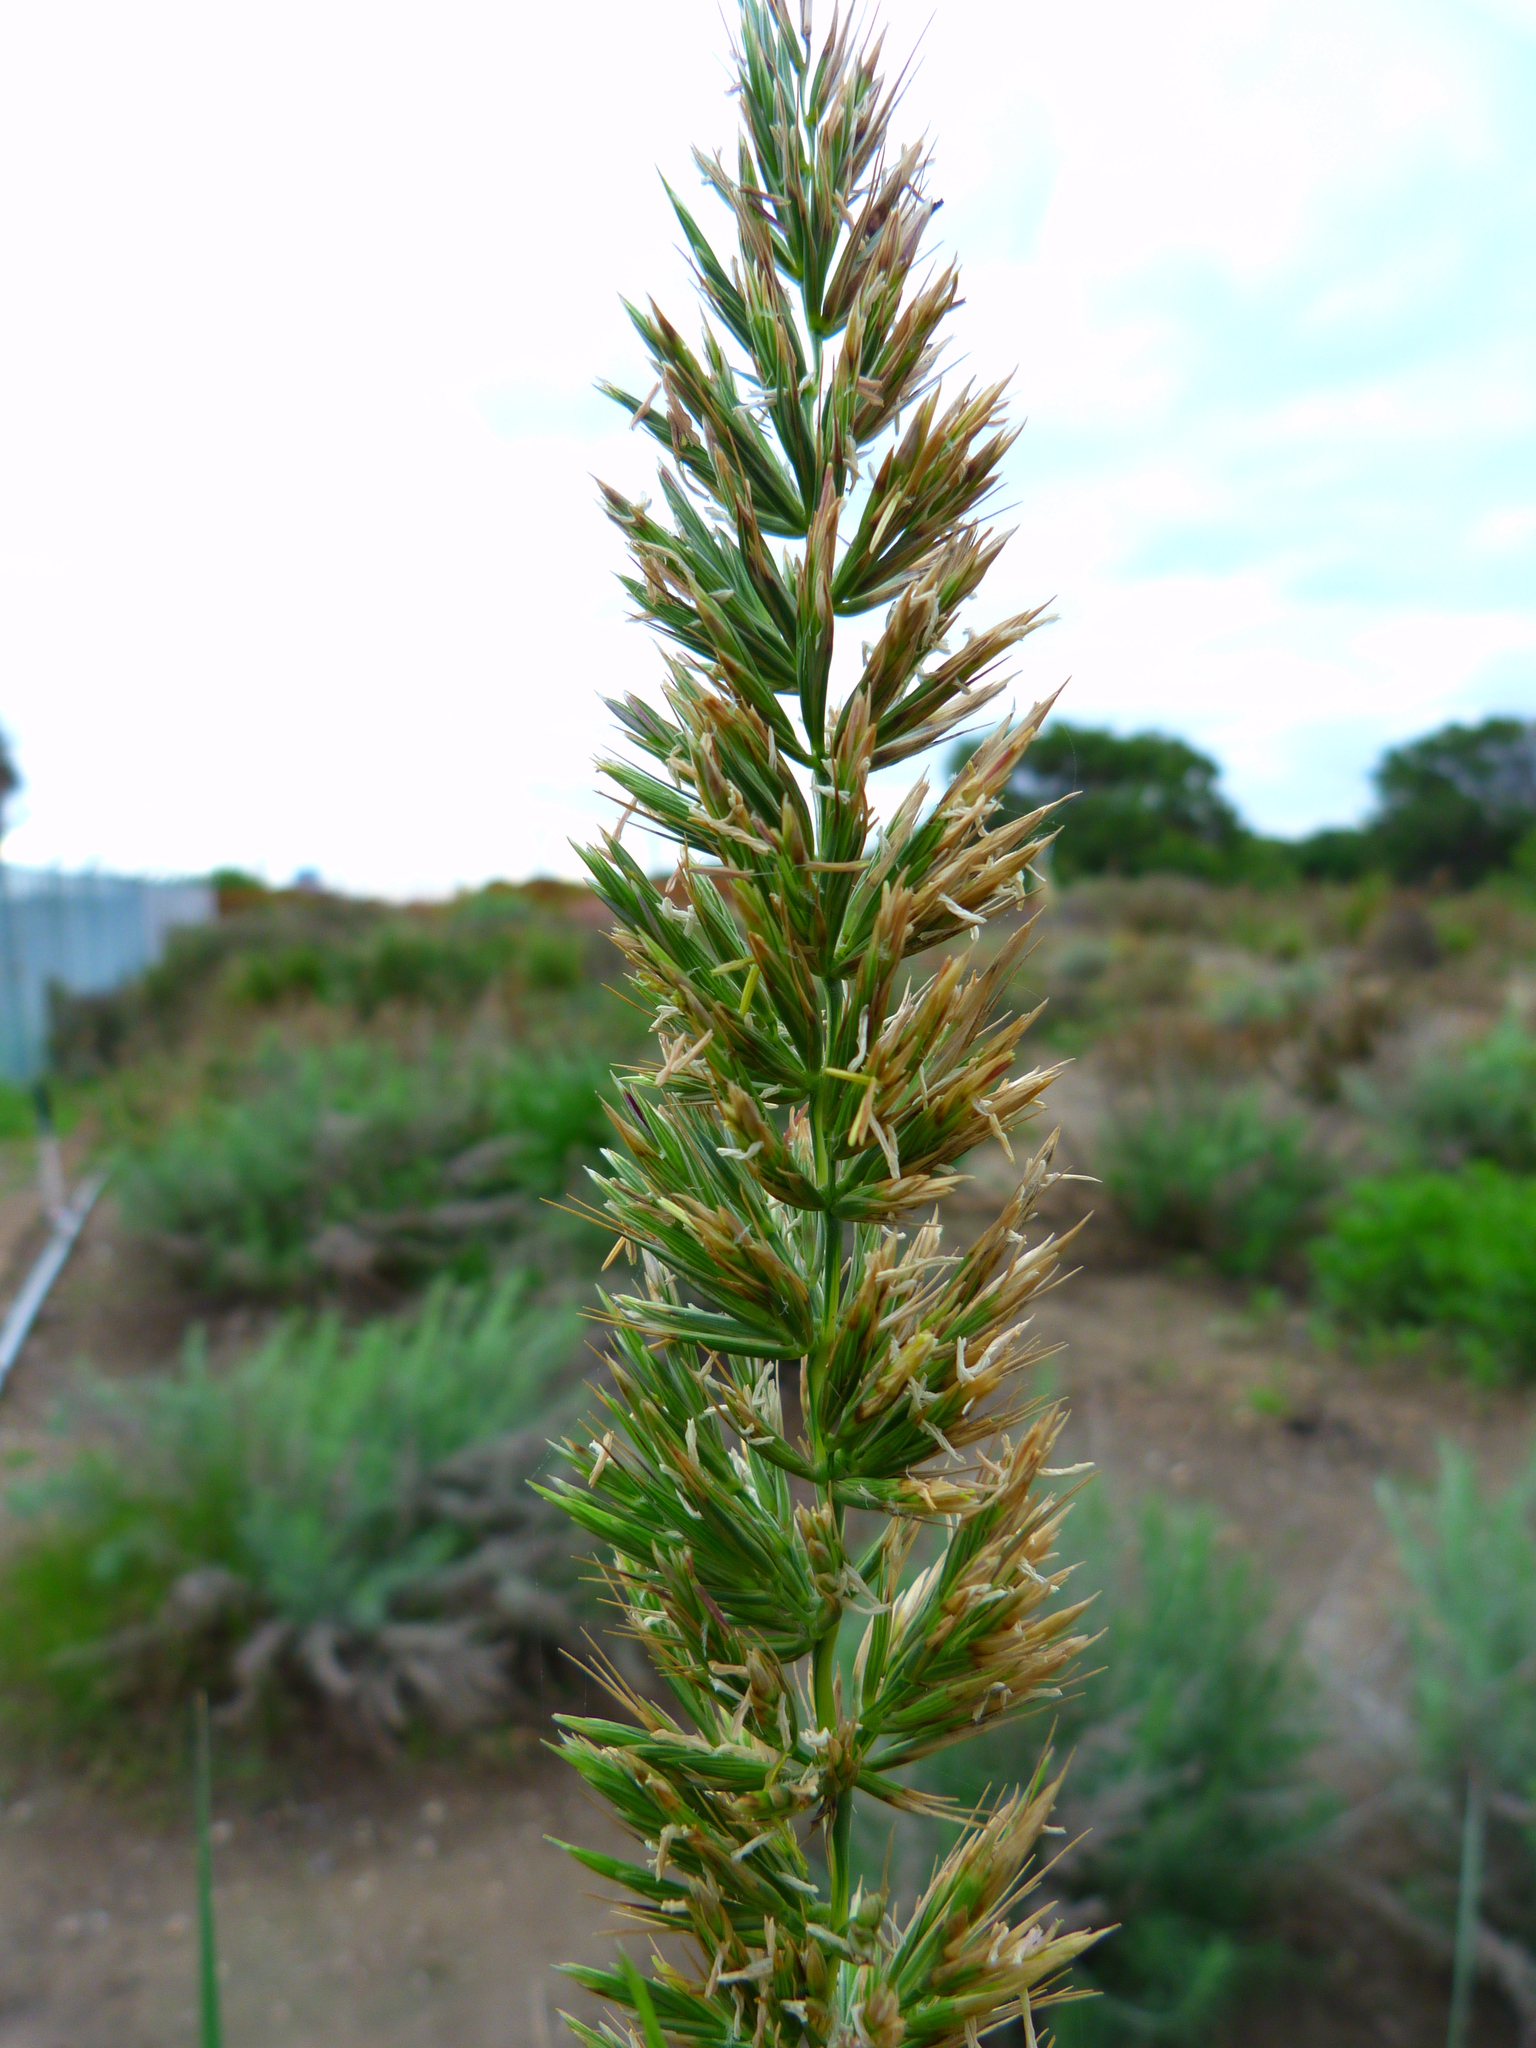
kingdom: Plantae
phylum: Tracheophyta
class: Liliopsida
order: Poales
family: Poaceae
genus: Leymus
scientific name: Leymus condensatus
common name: Giant wild rye
